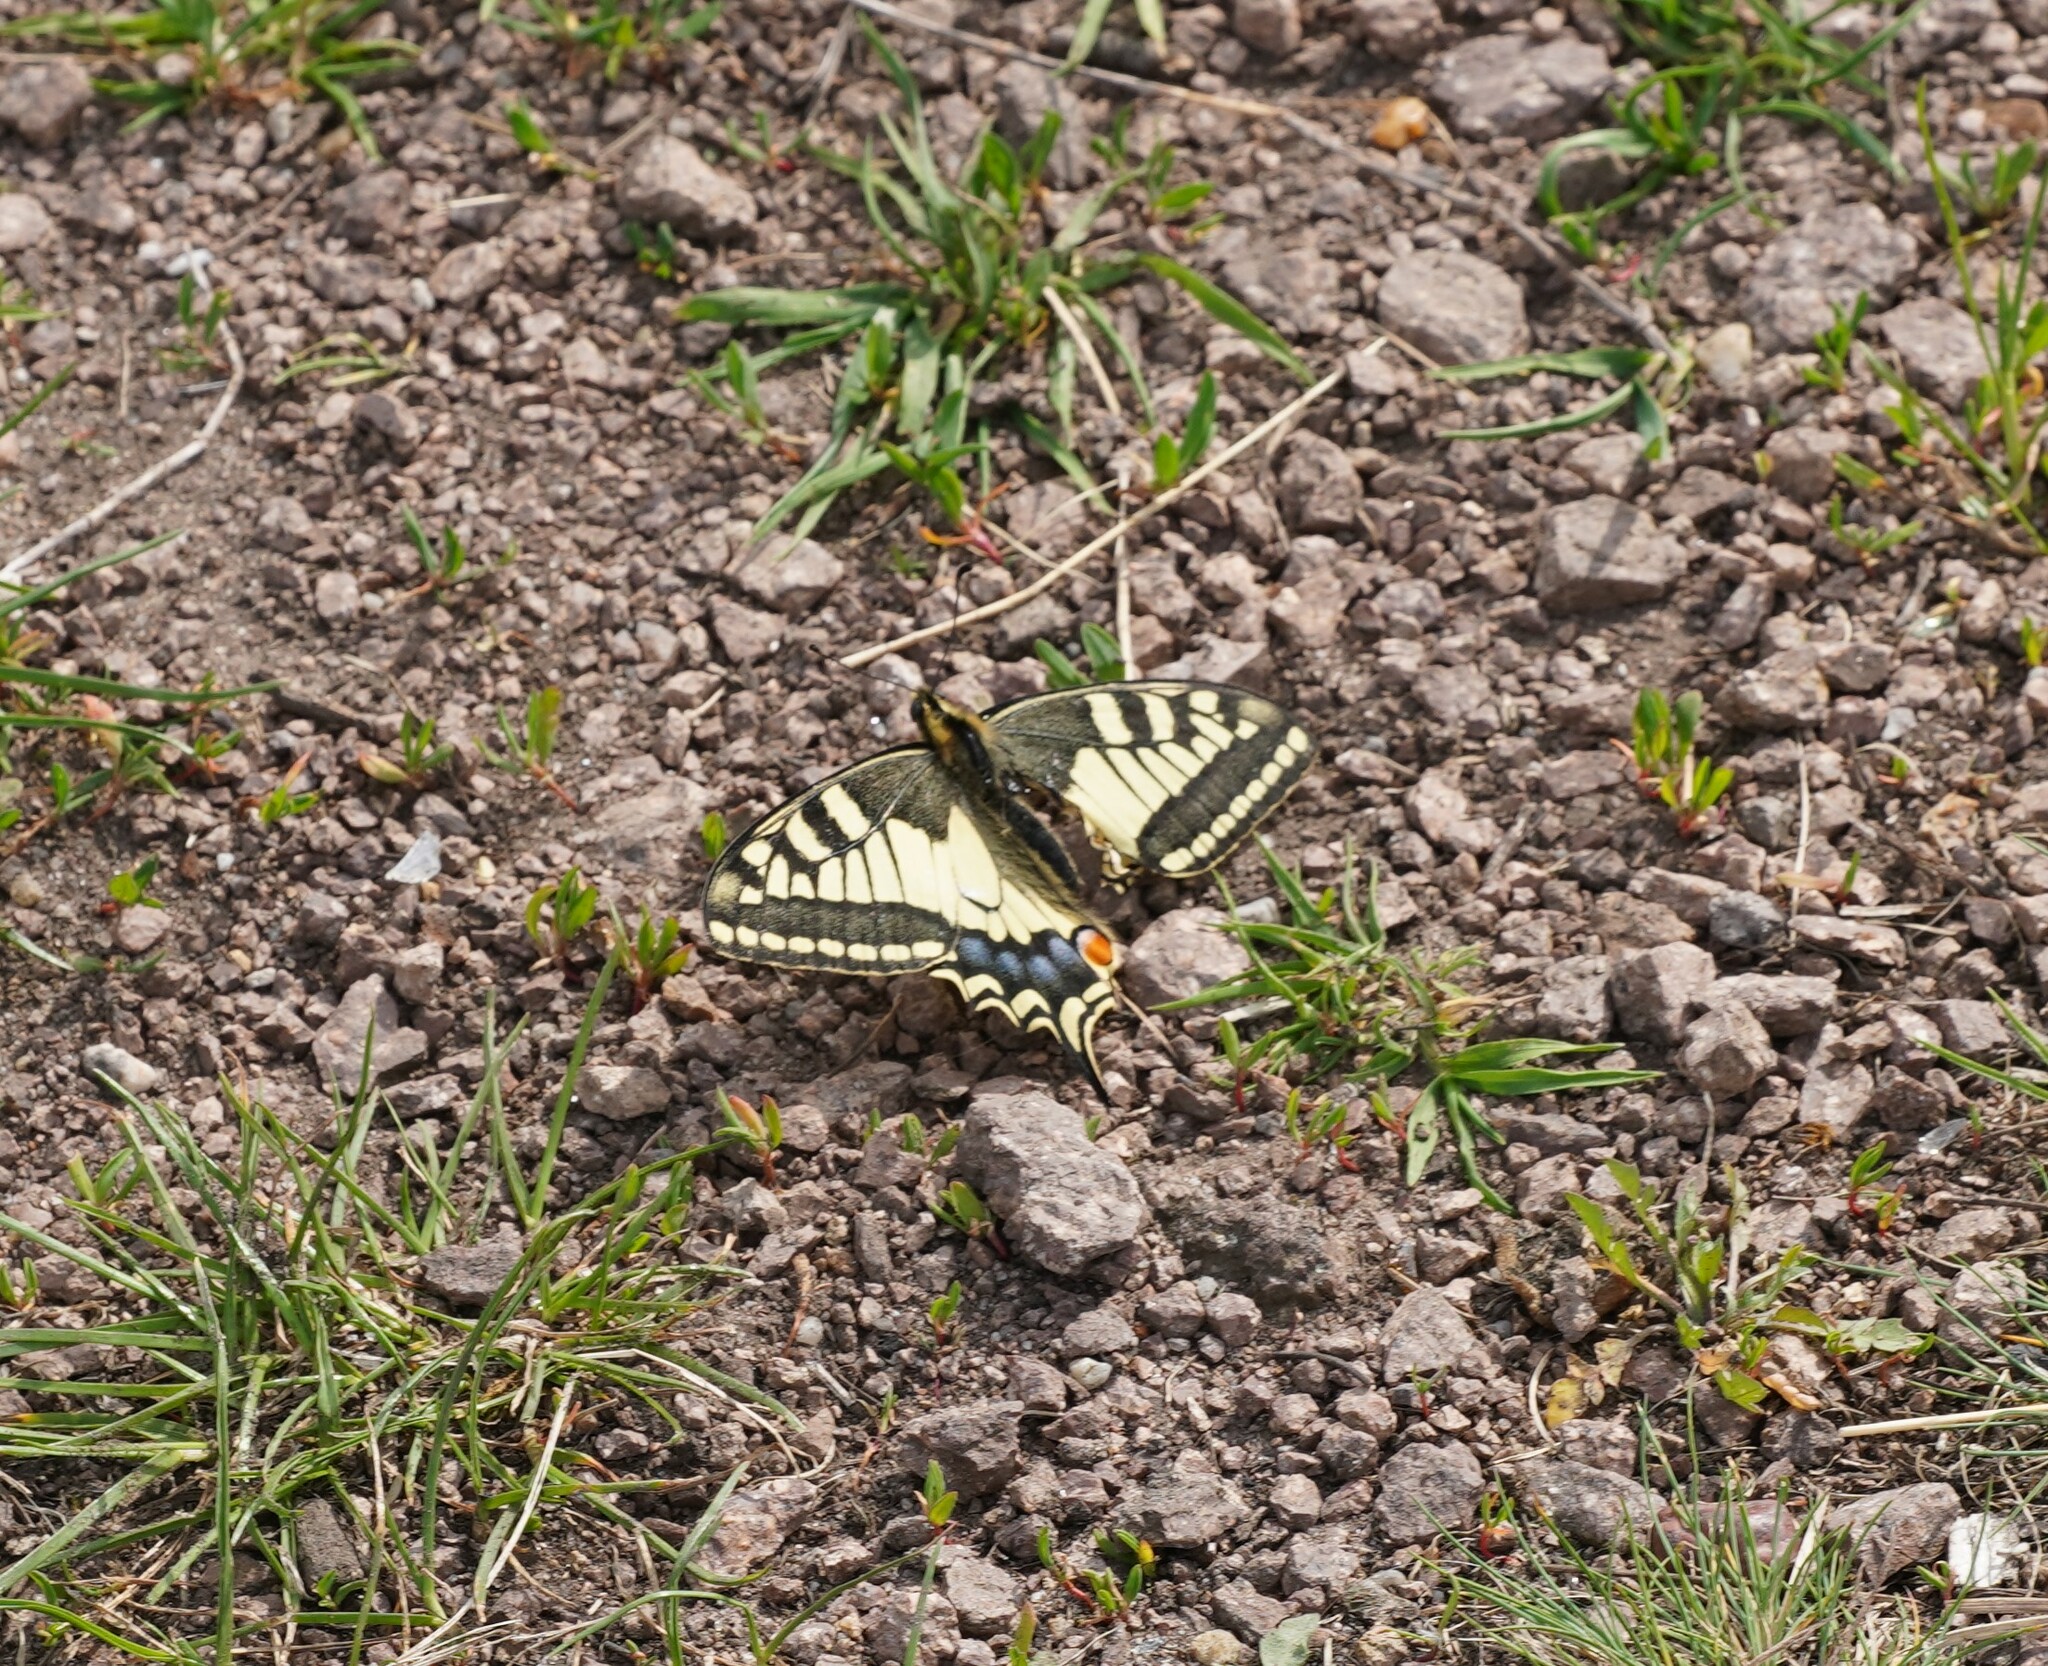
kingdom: Animalia
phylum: Arthropoda
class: Insecta
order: Lepidoptera
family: Papilionidae
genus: Papilio
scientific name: Papilio machaon
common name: Swallowtail
